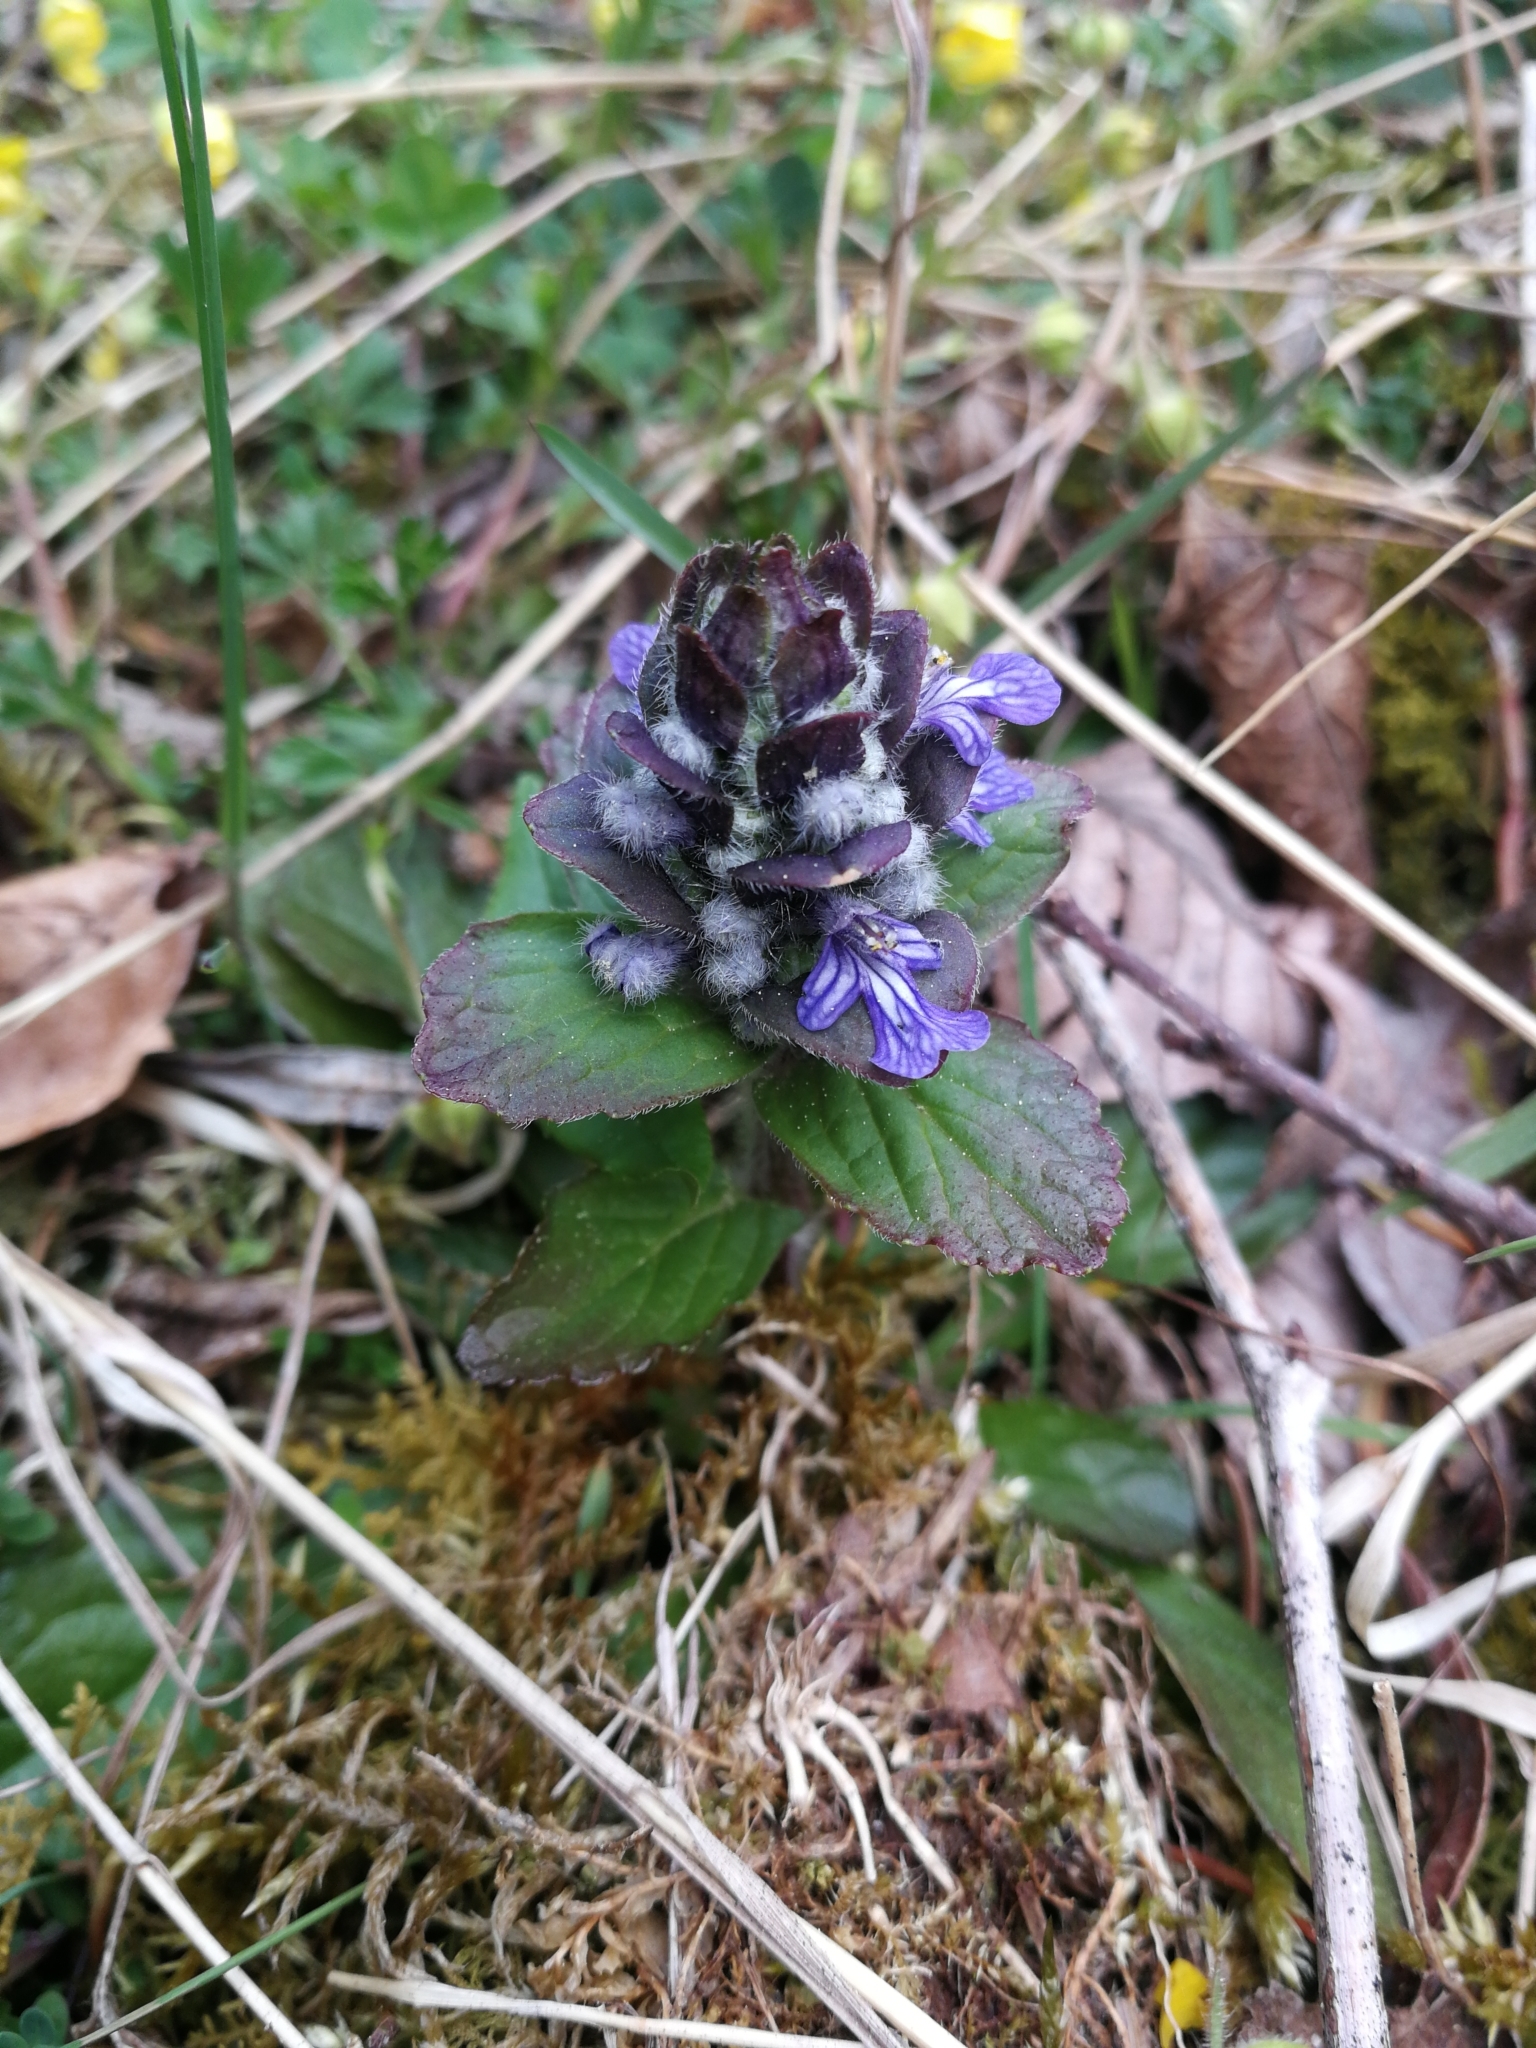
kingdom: Plantae
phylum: Tracheophyta
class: Magnoliopsida
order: Lamiales
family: Lamiaceae
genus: Ajuga
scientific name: Ajuga reptans
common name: Bugle
